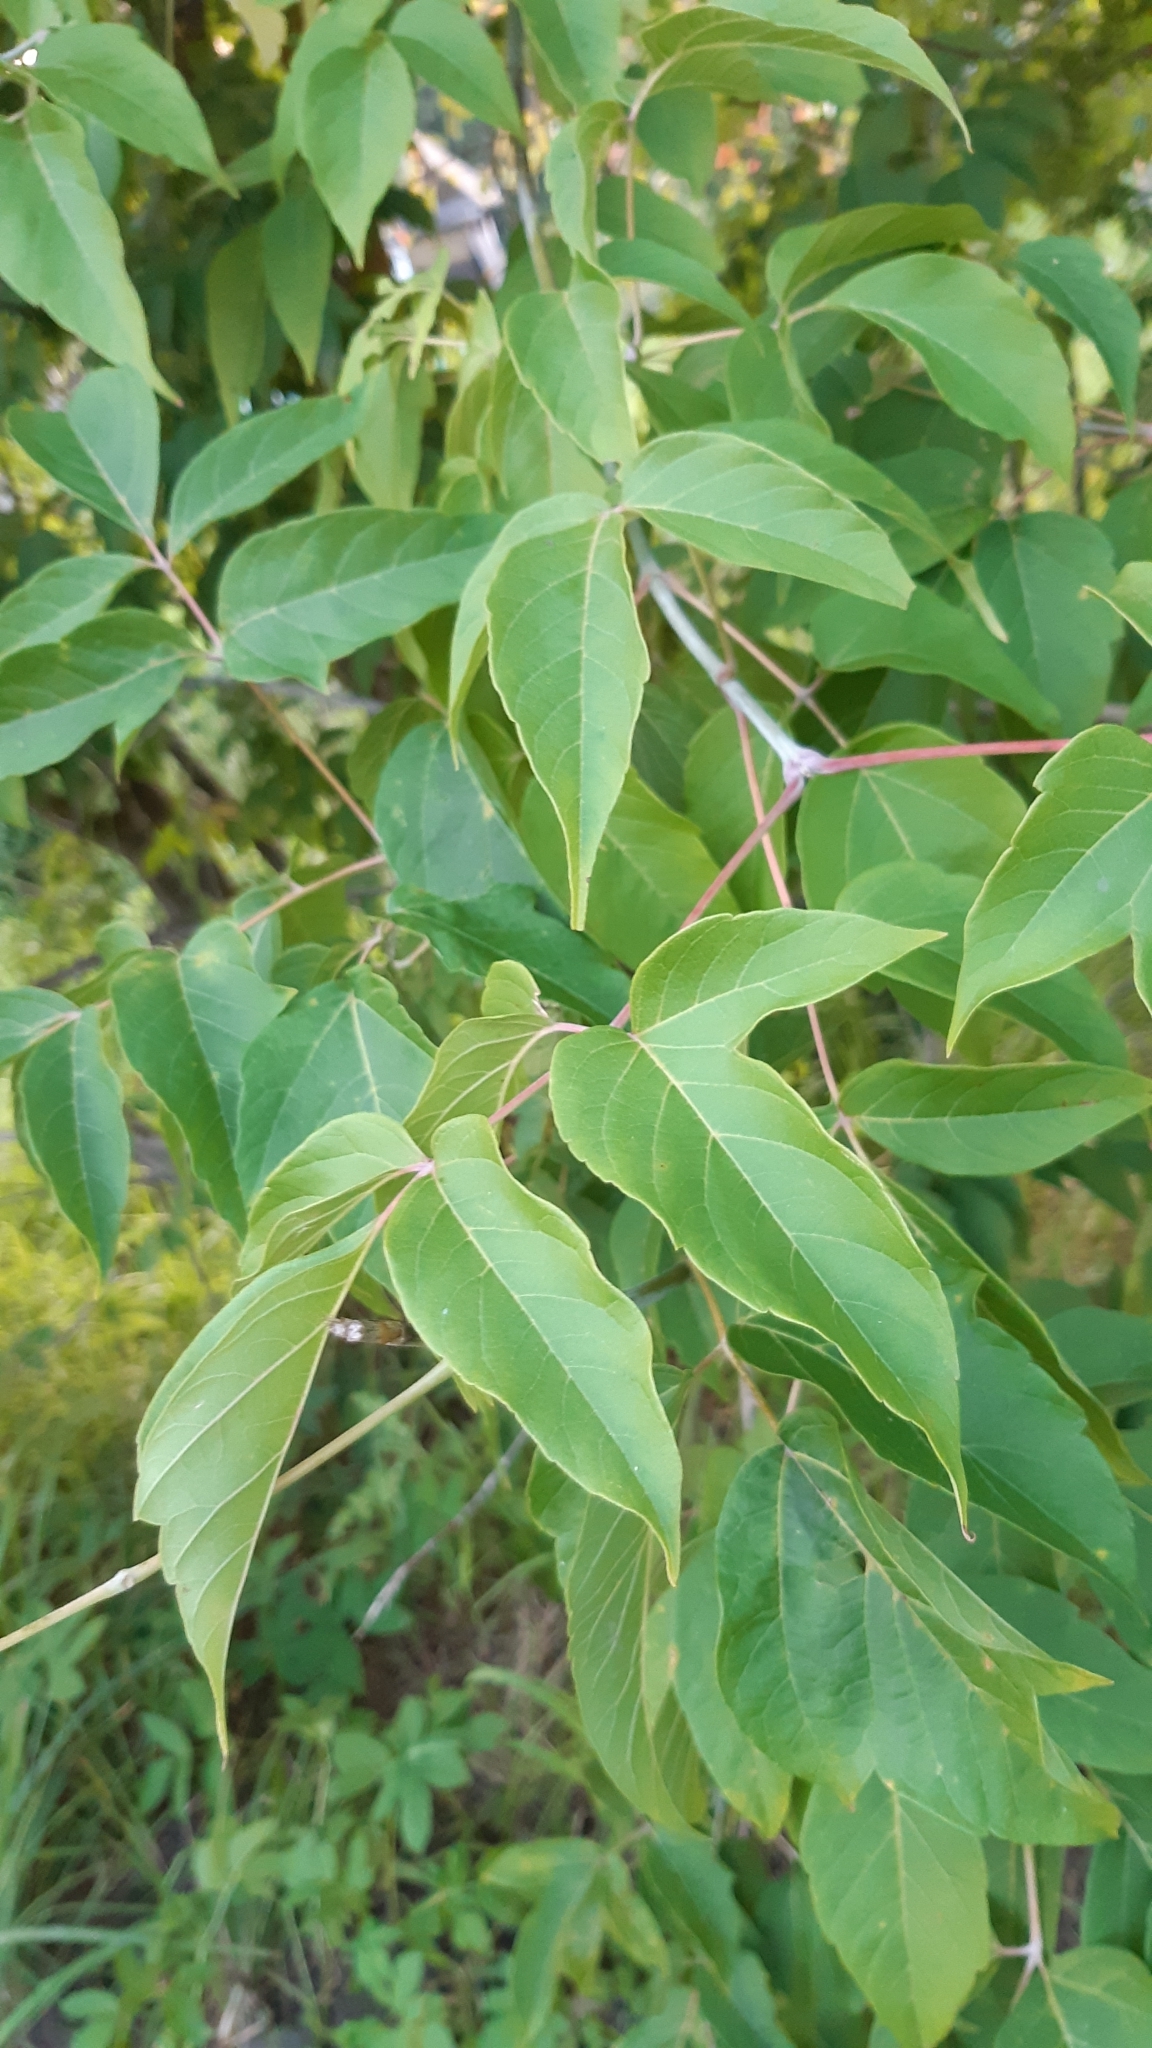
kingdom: Plantae
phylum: Tracheophyta
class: Magnoliopsida
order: Sapindales
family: Sapindaceae
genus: Acer
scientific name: Acer negundo
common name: Ashleaf maple
